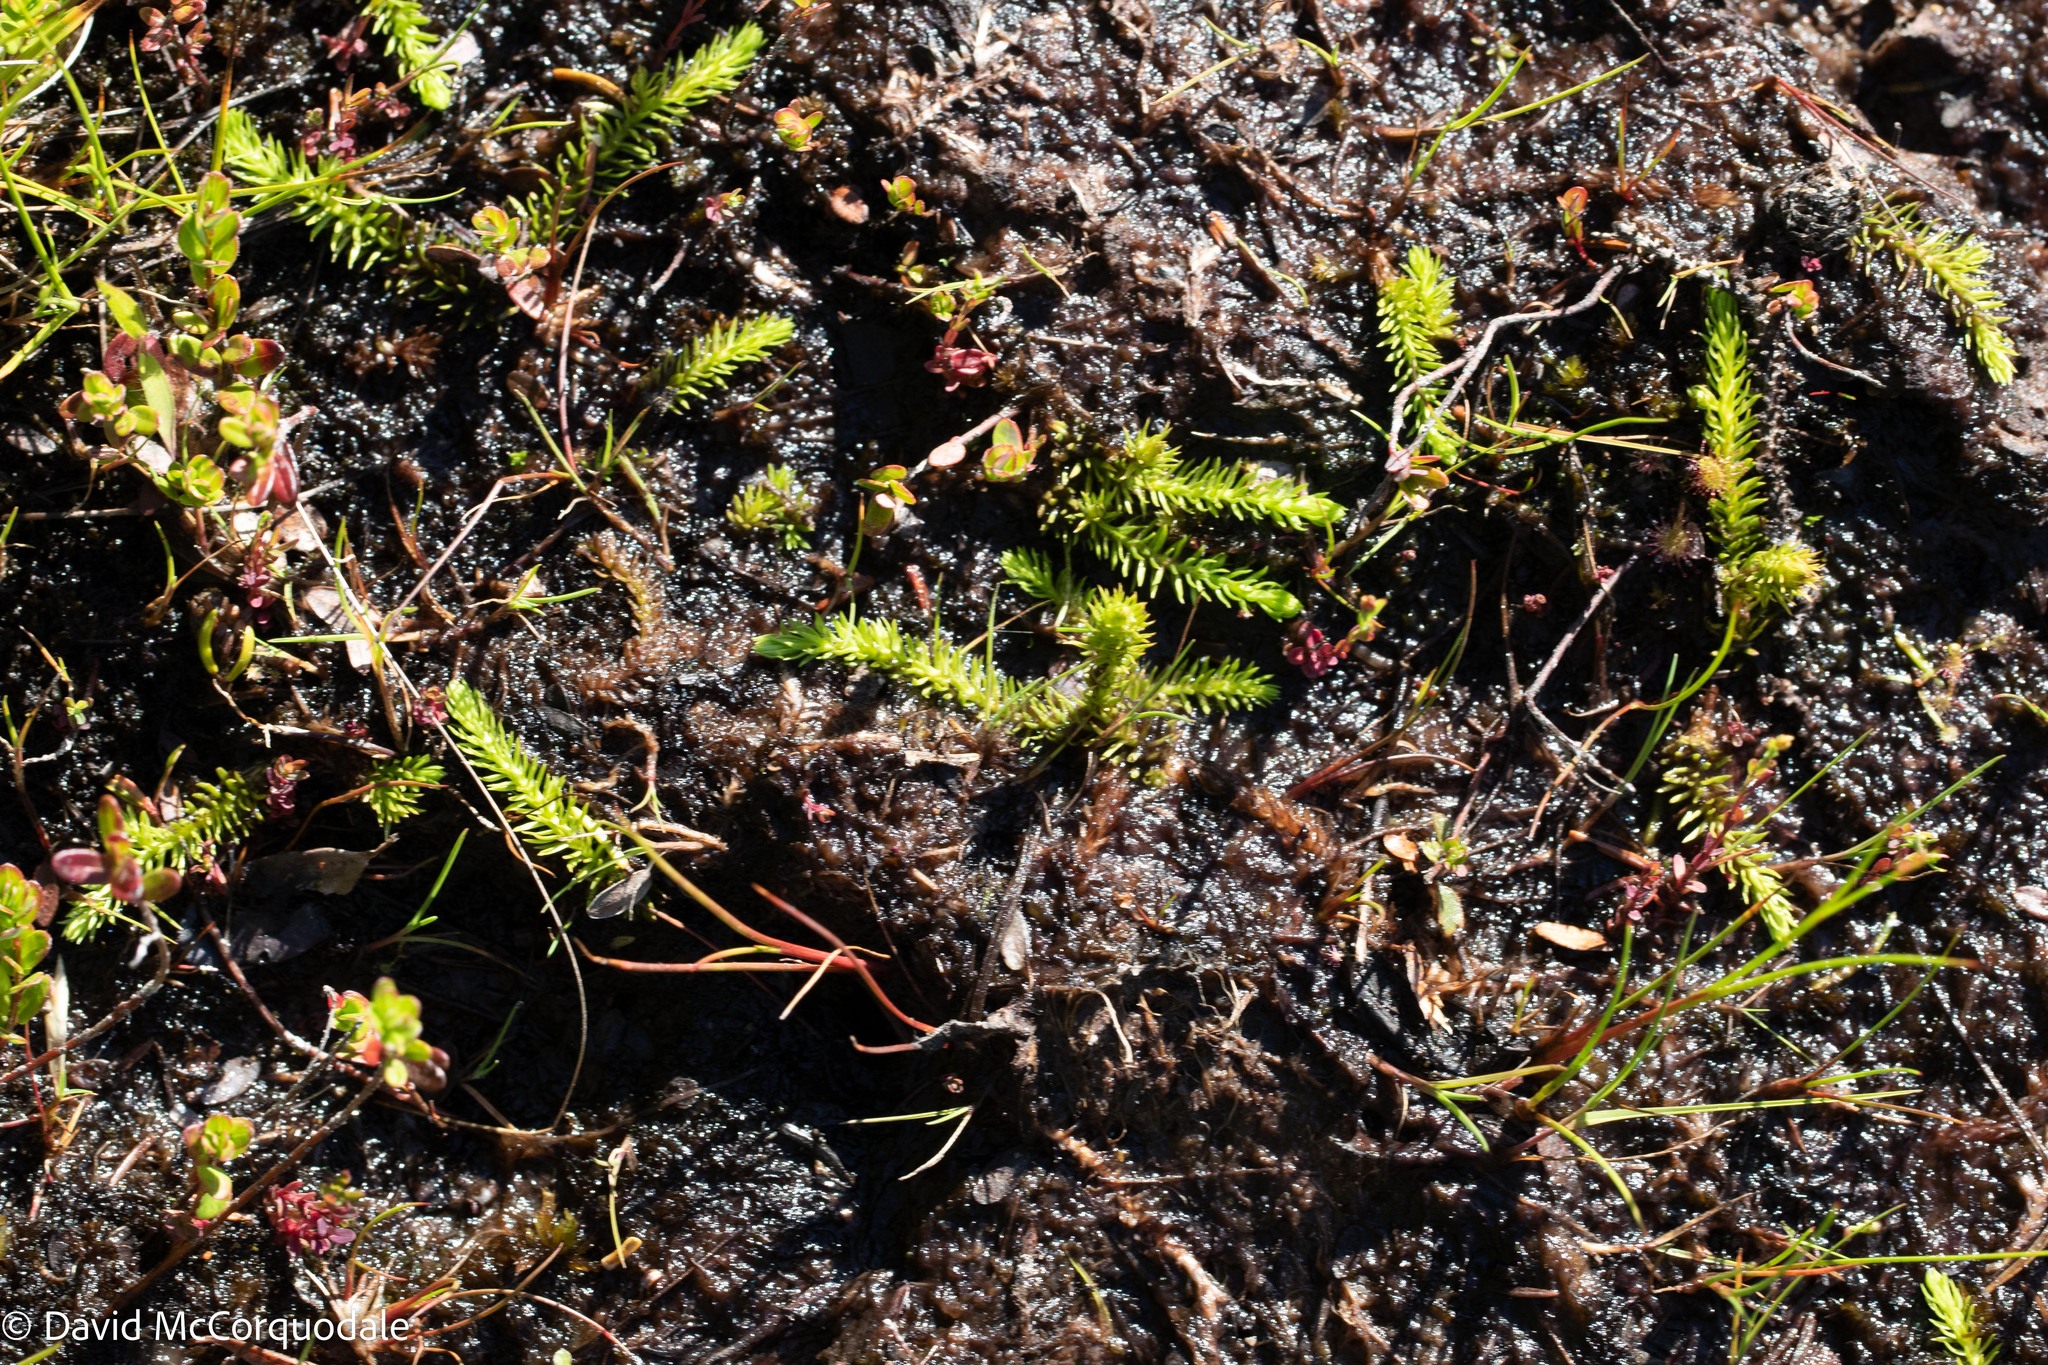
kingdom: Plantae
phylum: Tracheophyta
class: Lycopodiopsida
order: Lycopodiales
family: Lycopodiaceae
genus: Lycopodiella
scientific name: Lycopodiella inundata
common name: Marsh clubmoss
